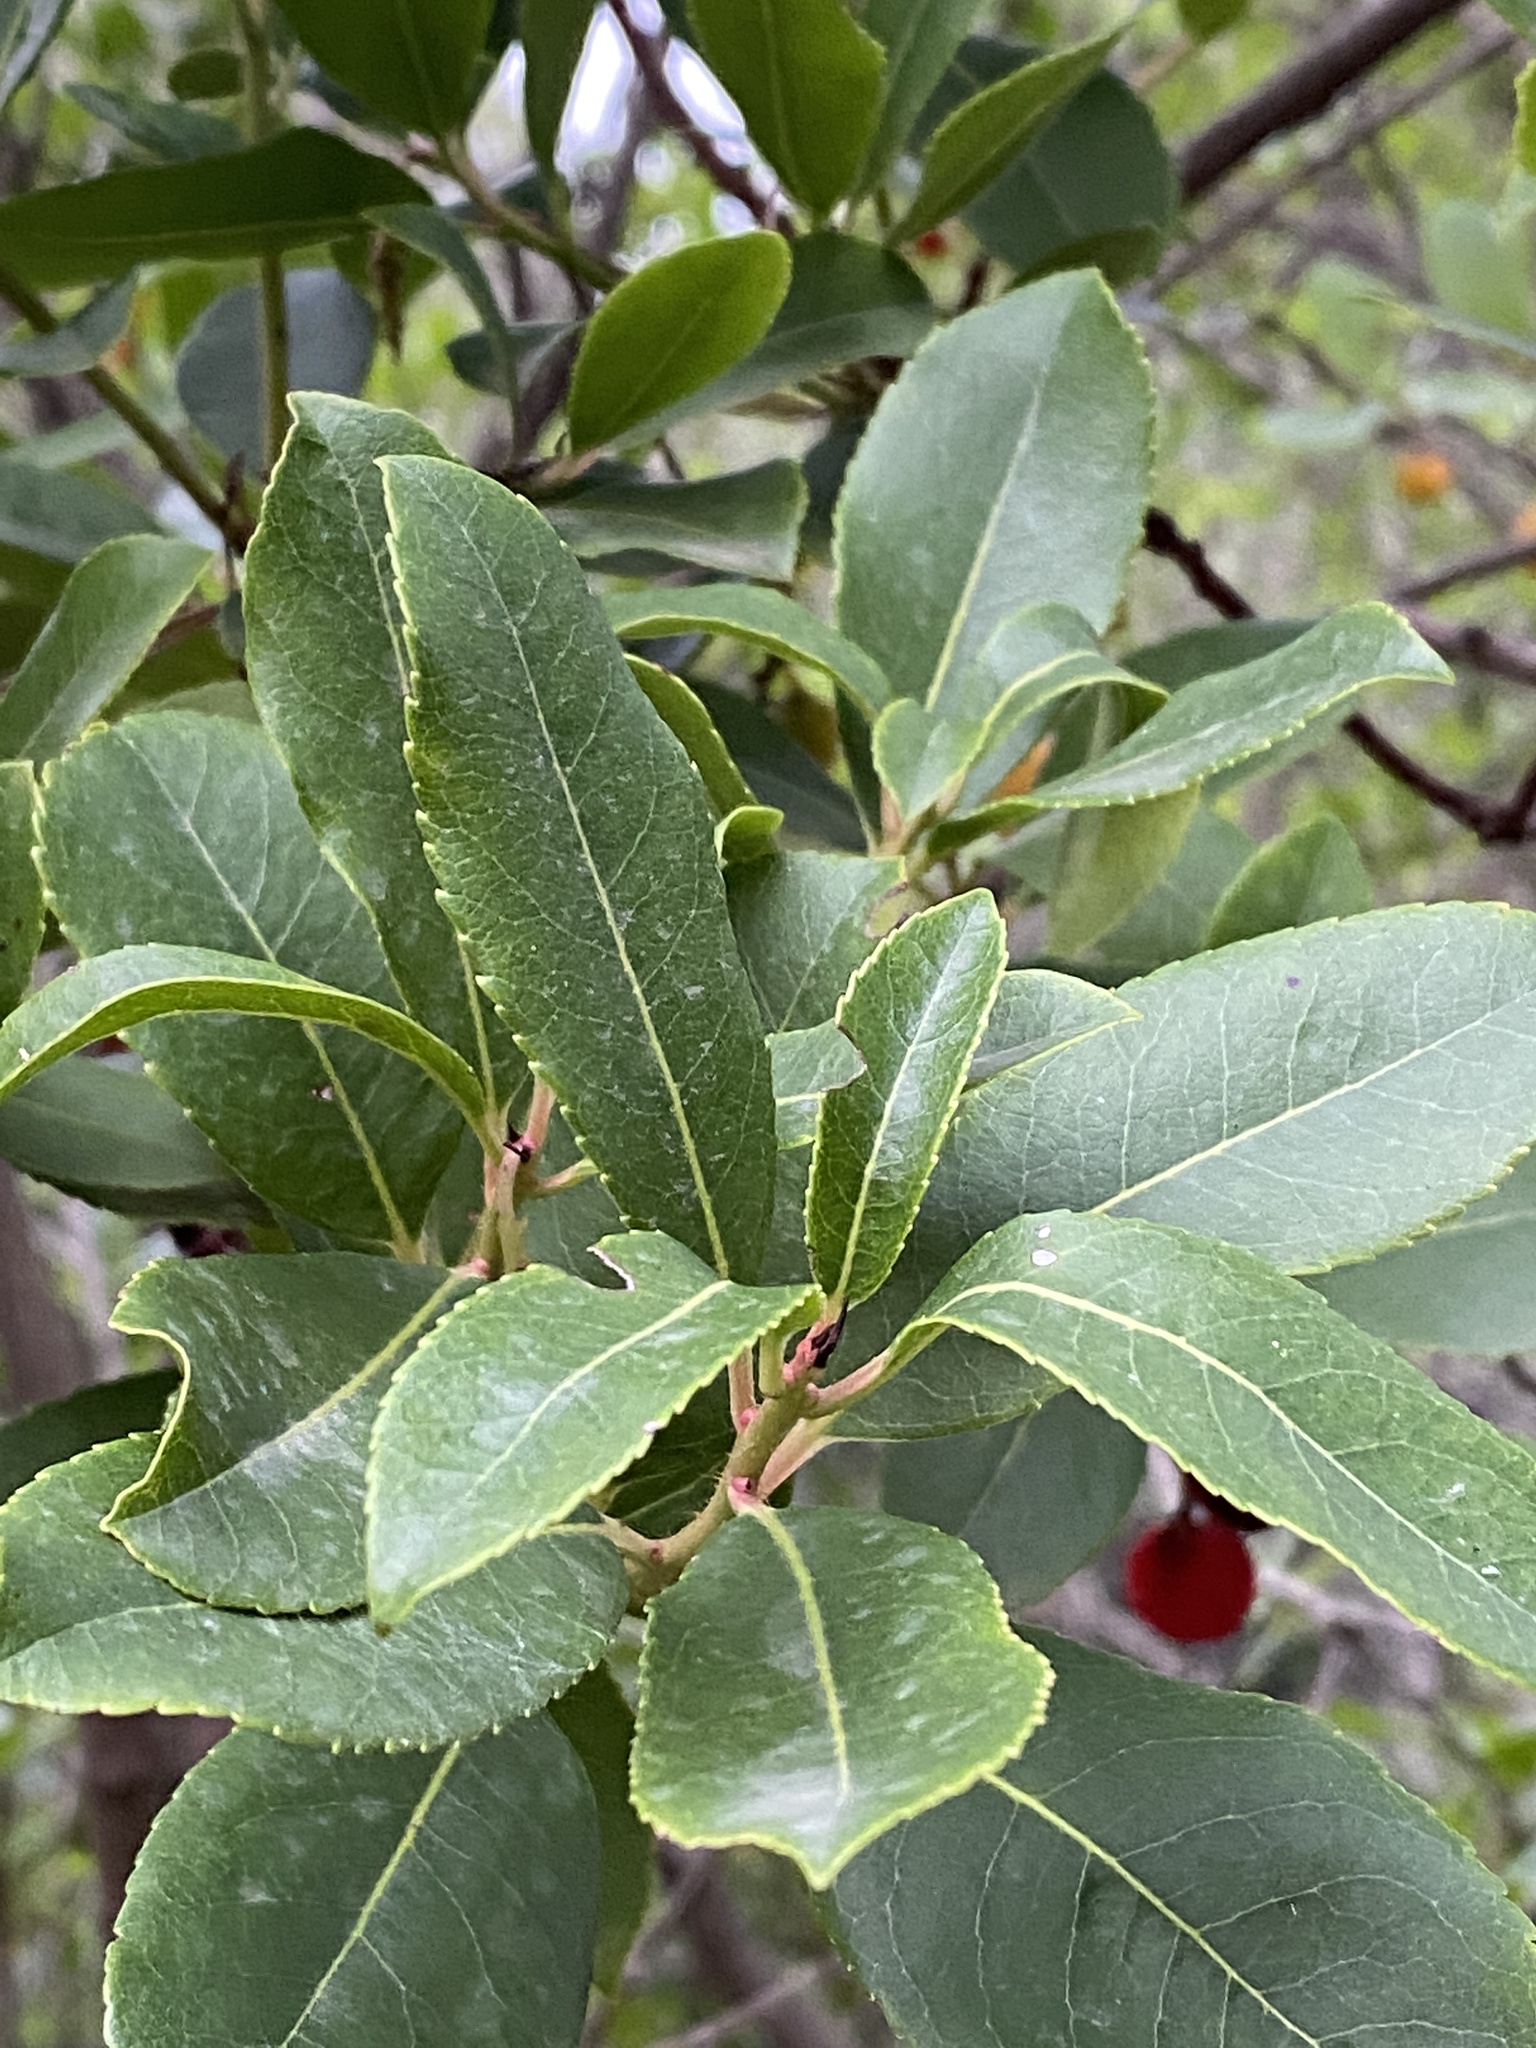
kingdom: Plantae
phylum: Tracheophyta
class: Magnoliopsida
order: Ericales
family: Ericaceae
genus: Arbutus
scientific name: Arbutus unedo
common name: Strawberry-tree
